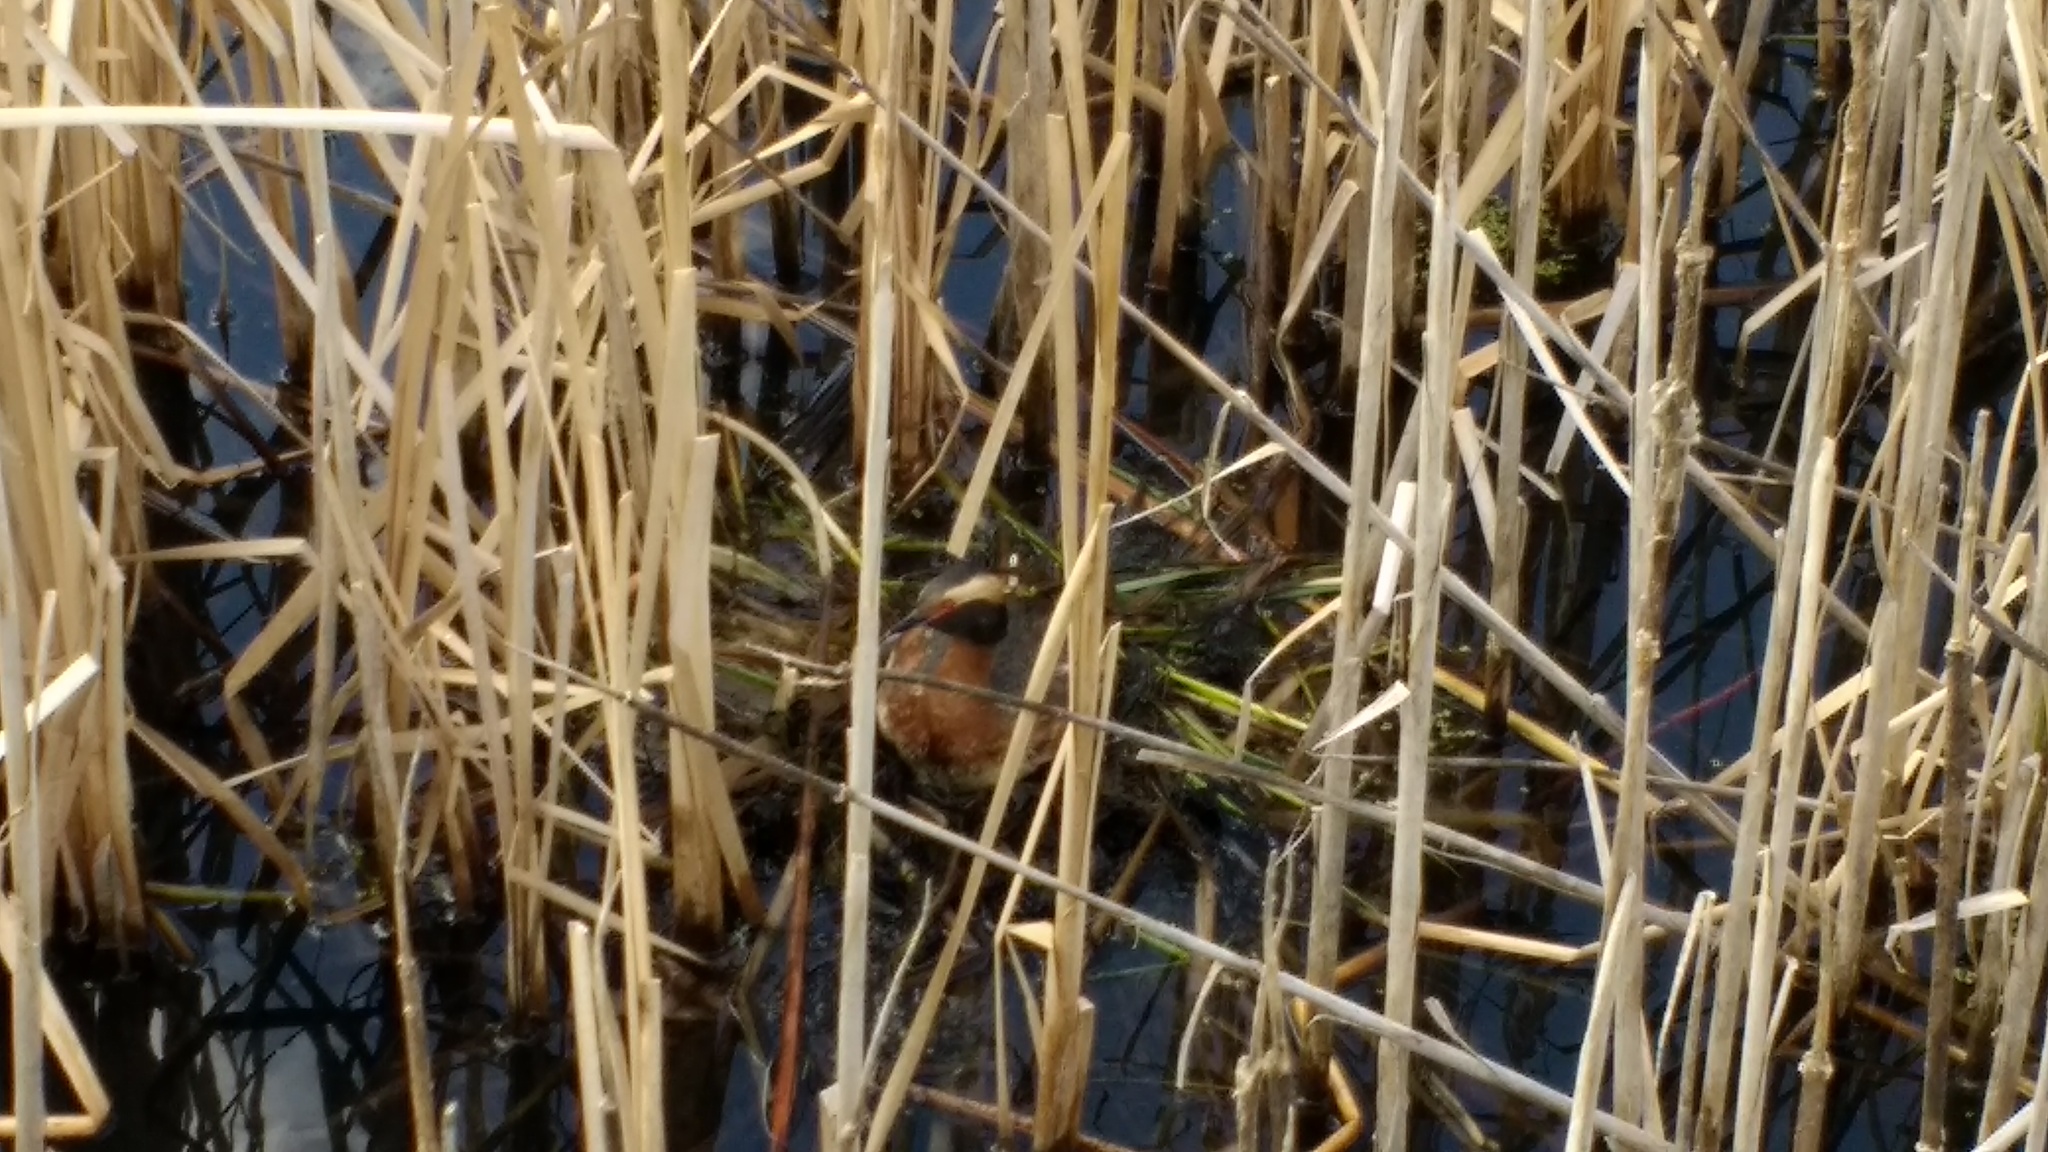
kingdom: Animalia
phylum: Chordata
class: Aves
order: Podicipediformes
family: Podicipedidae
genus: Podiceps
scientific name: Podiceps auritus
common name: Horned grebe
